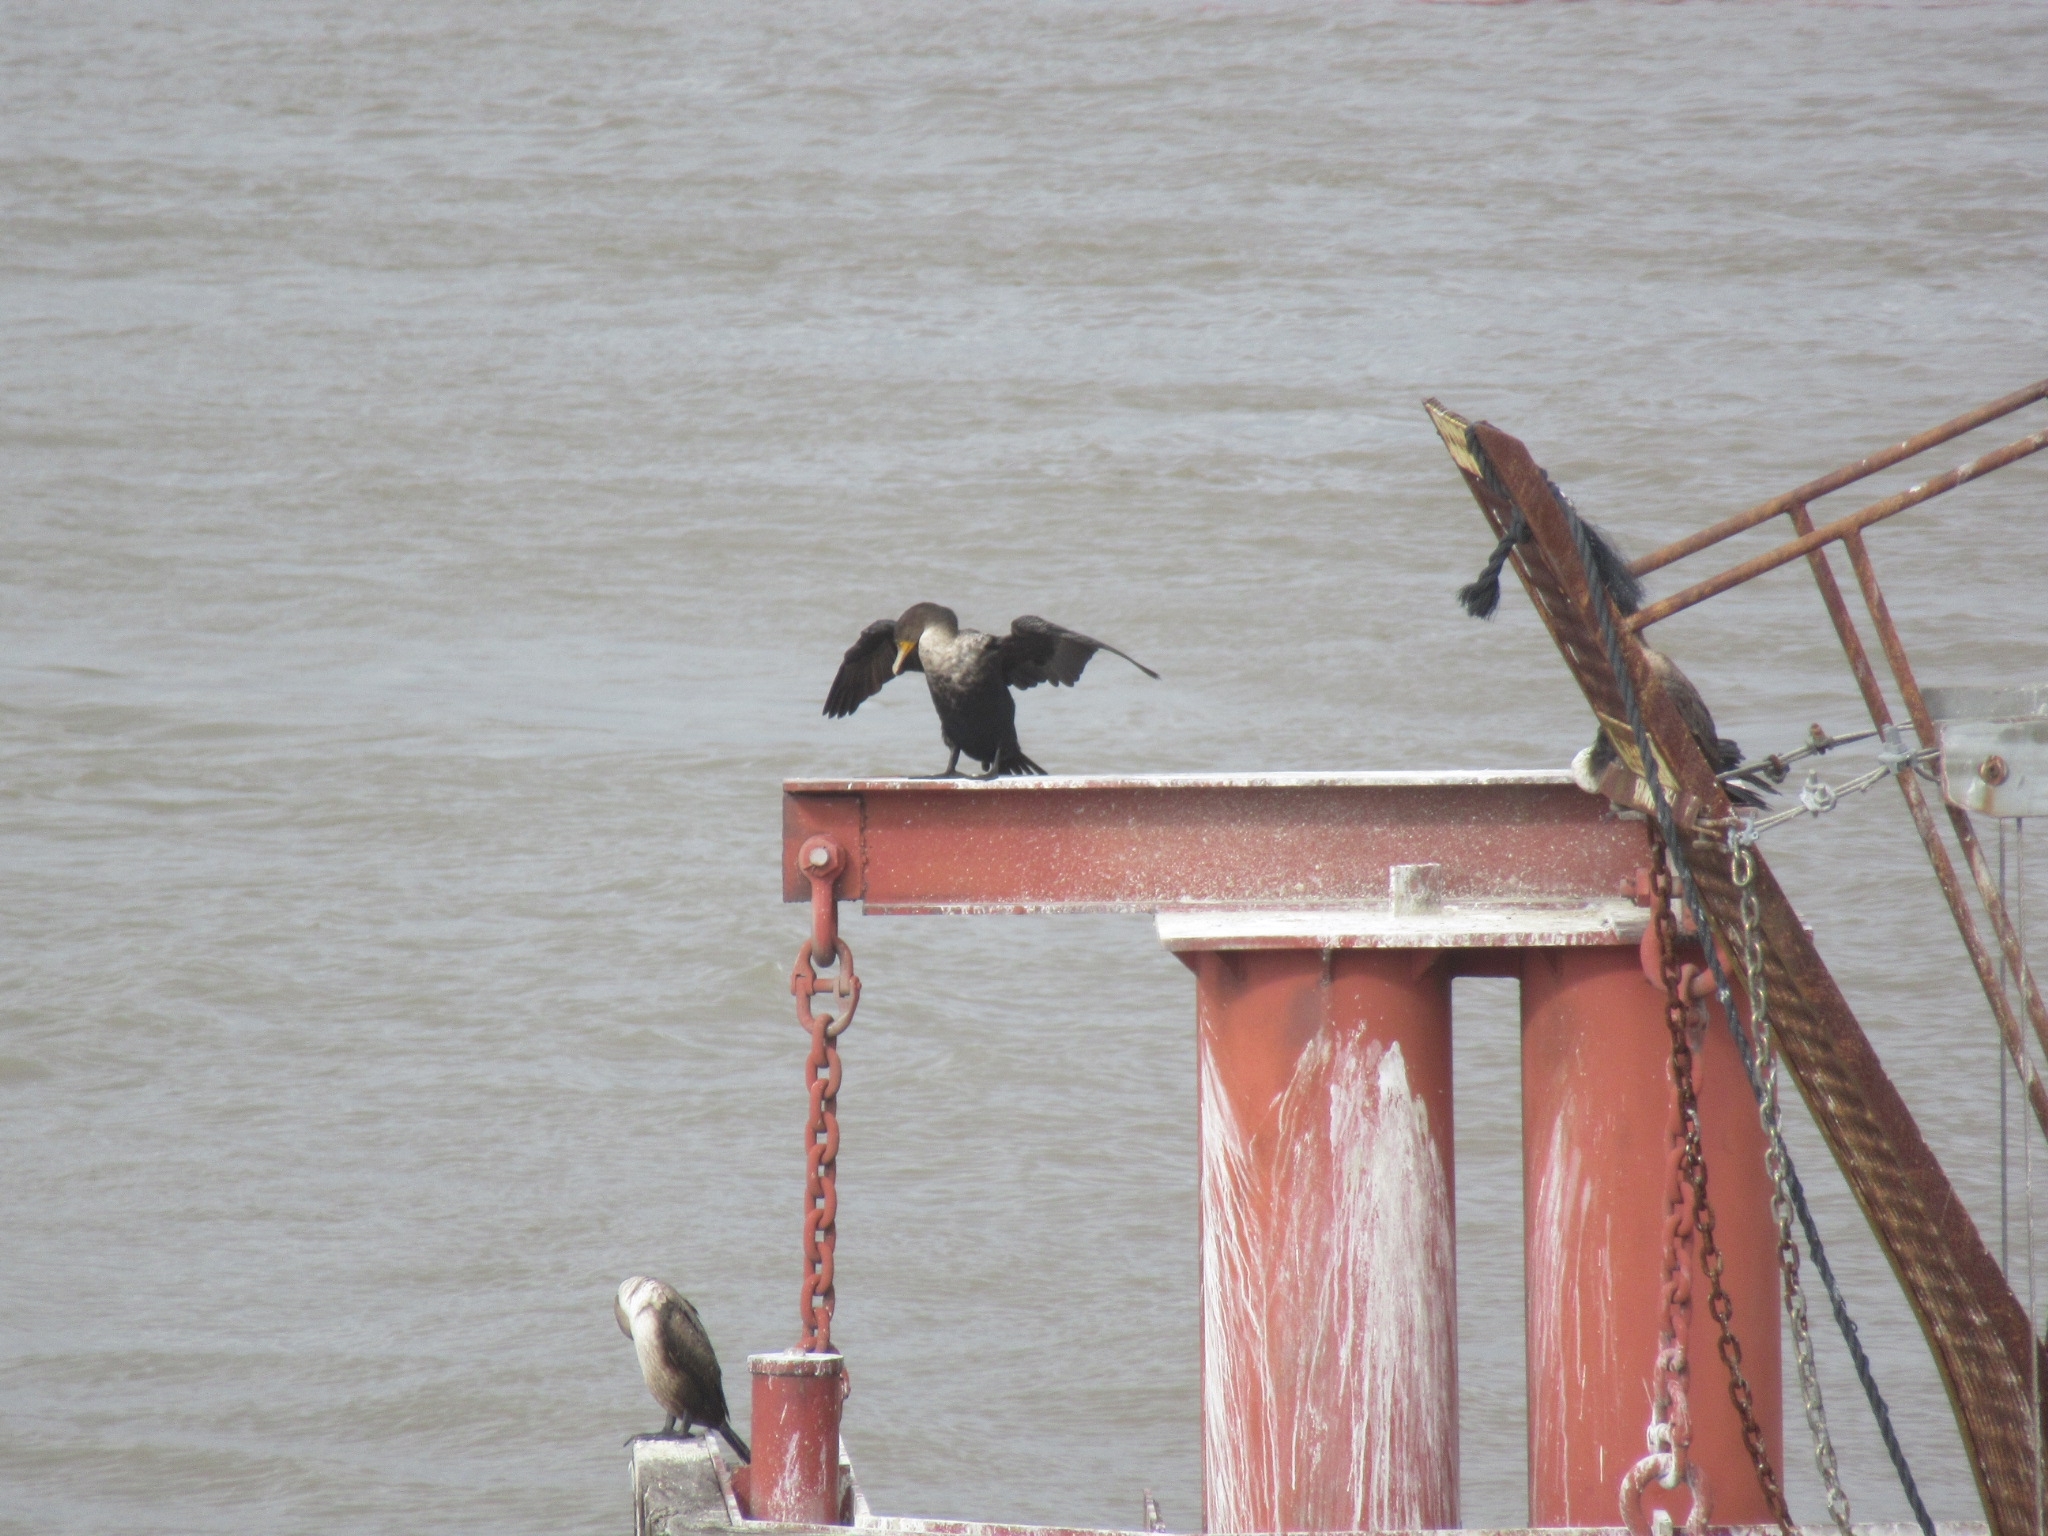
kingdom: Animalia
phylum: Chordata
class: Aves
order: Suliformes
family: Phalacrocoracidae
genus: Phalacrocorax
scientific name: Phalacrocorax auritus
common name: Double-crested cormorant
